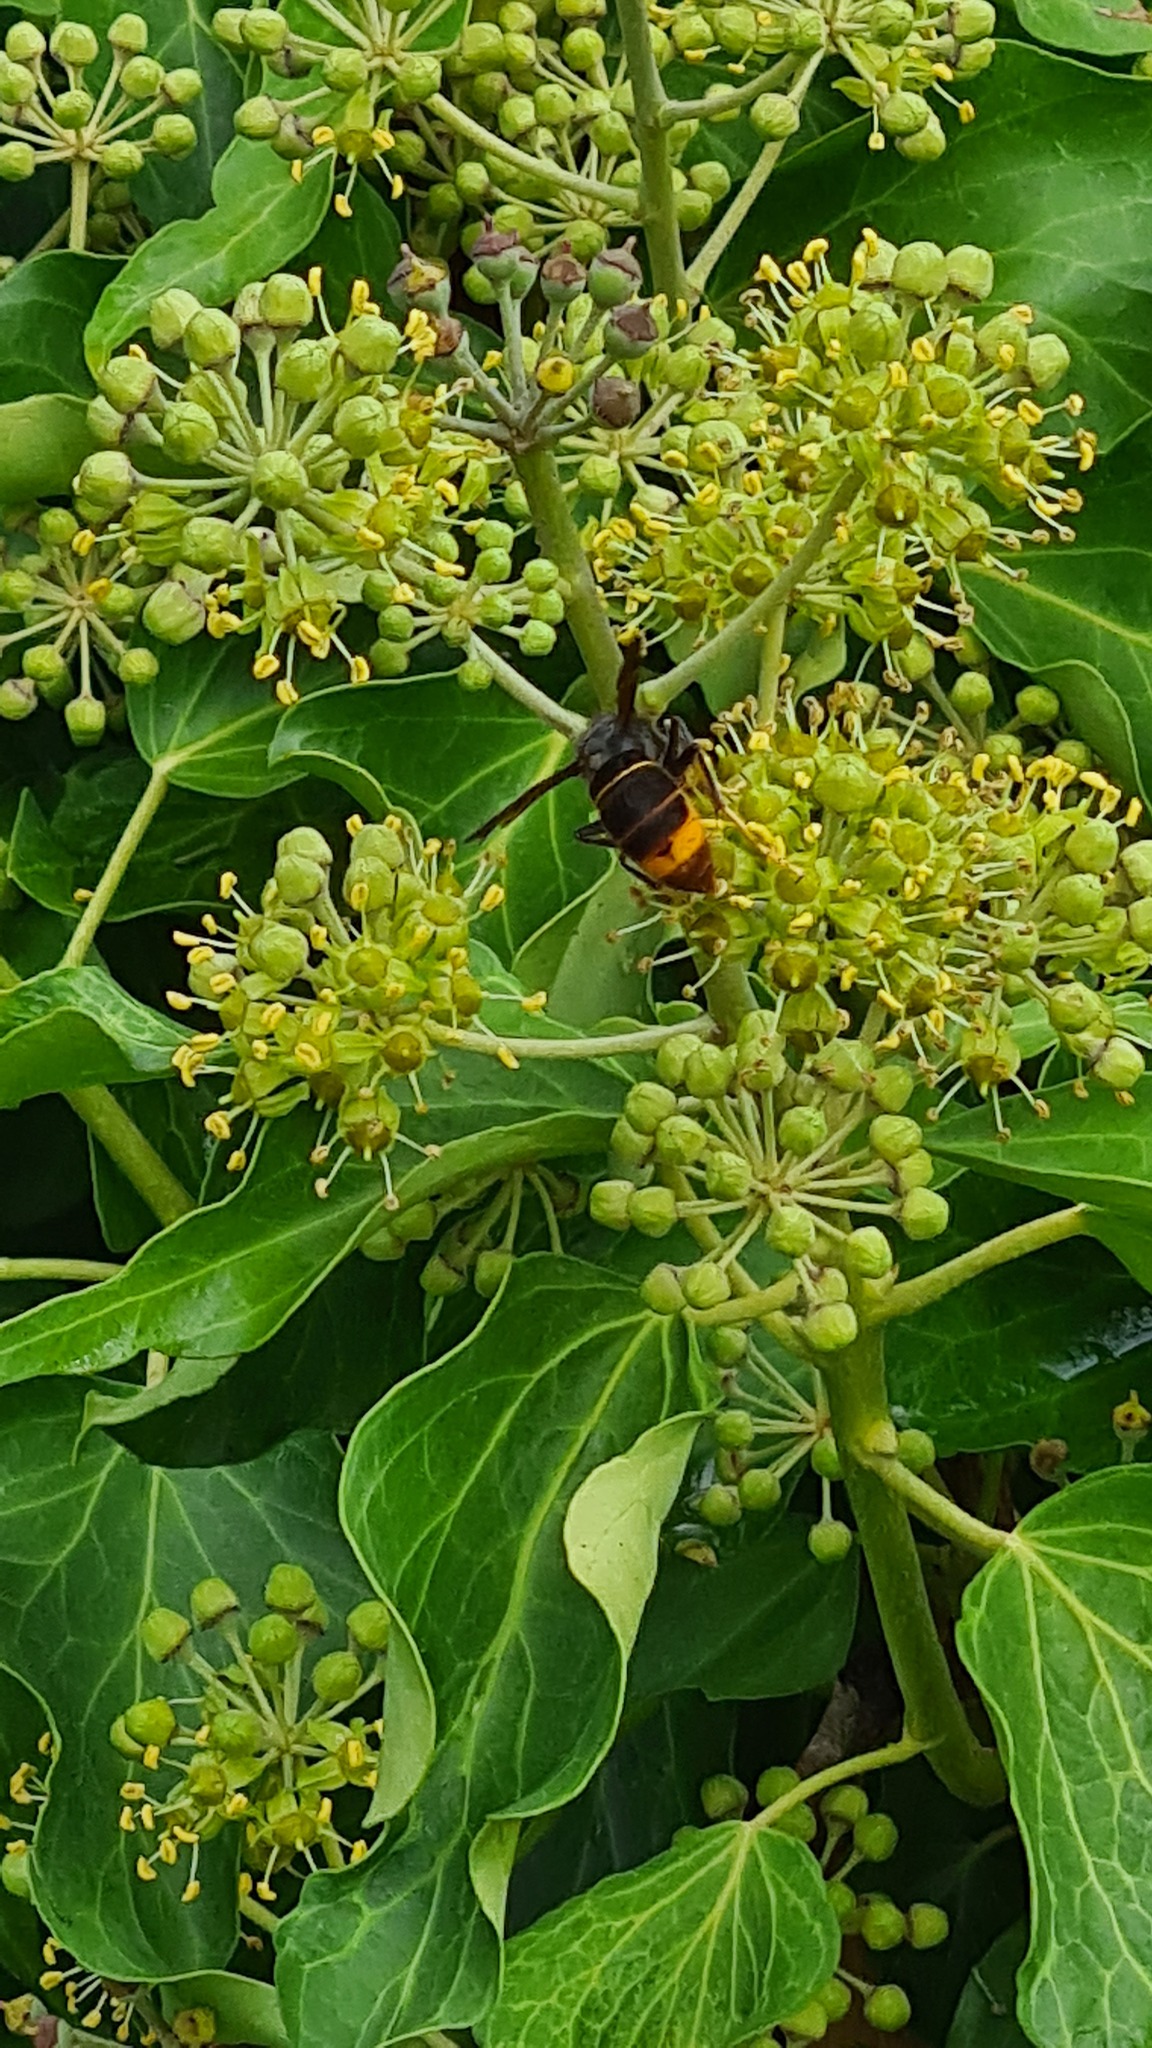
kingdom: Animalia
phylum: Arthropoda
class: Insecta
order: Hymenoptera
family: Vespidae
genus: Vespa
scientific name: Vespa velutina
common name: Asian hornet
